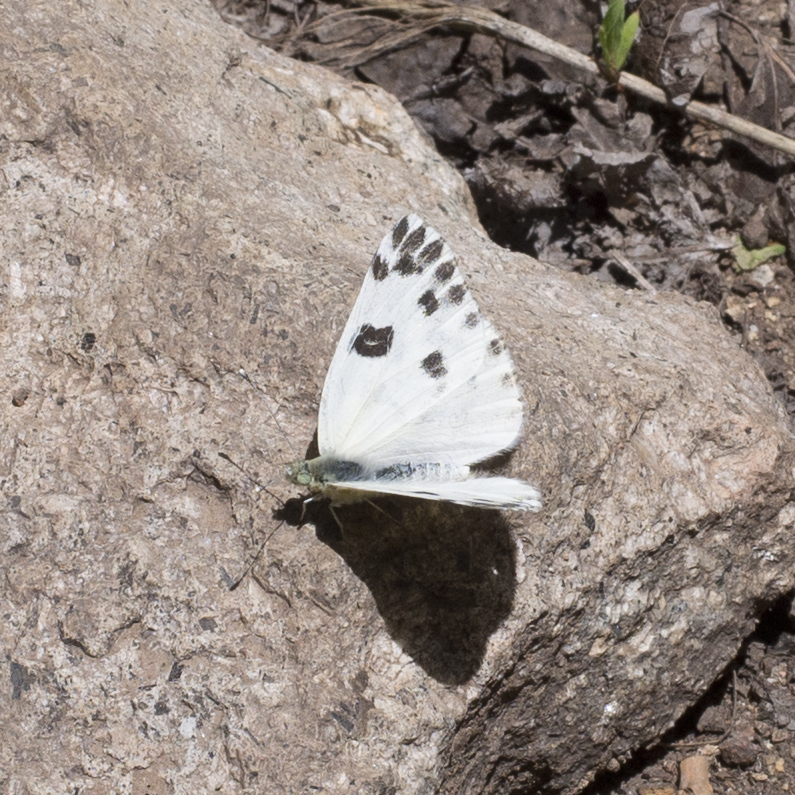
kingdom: Animalia
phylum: Arthropoda
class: Insecta
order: Lepidoptera
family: Pieridae
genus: Pontia
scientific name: Pontia beckerii
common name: Becker's white
